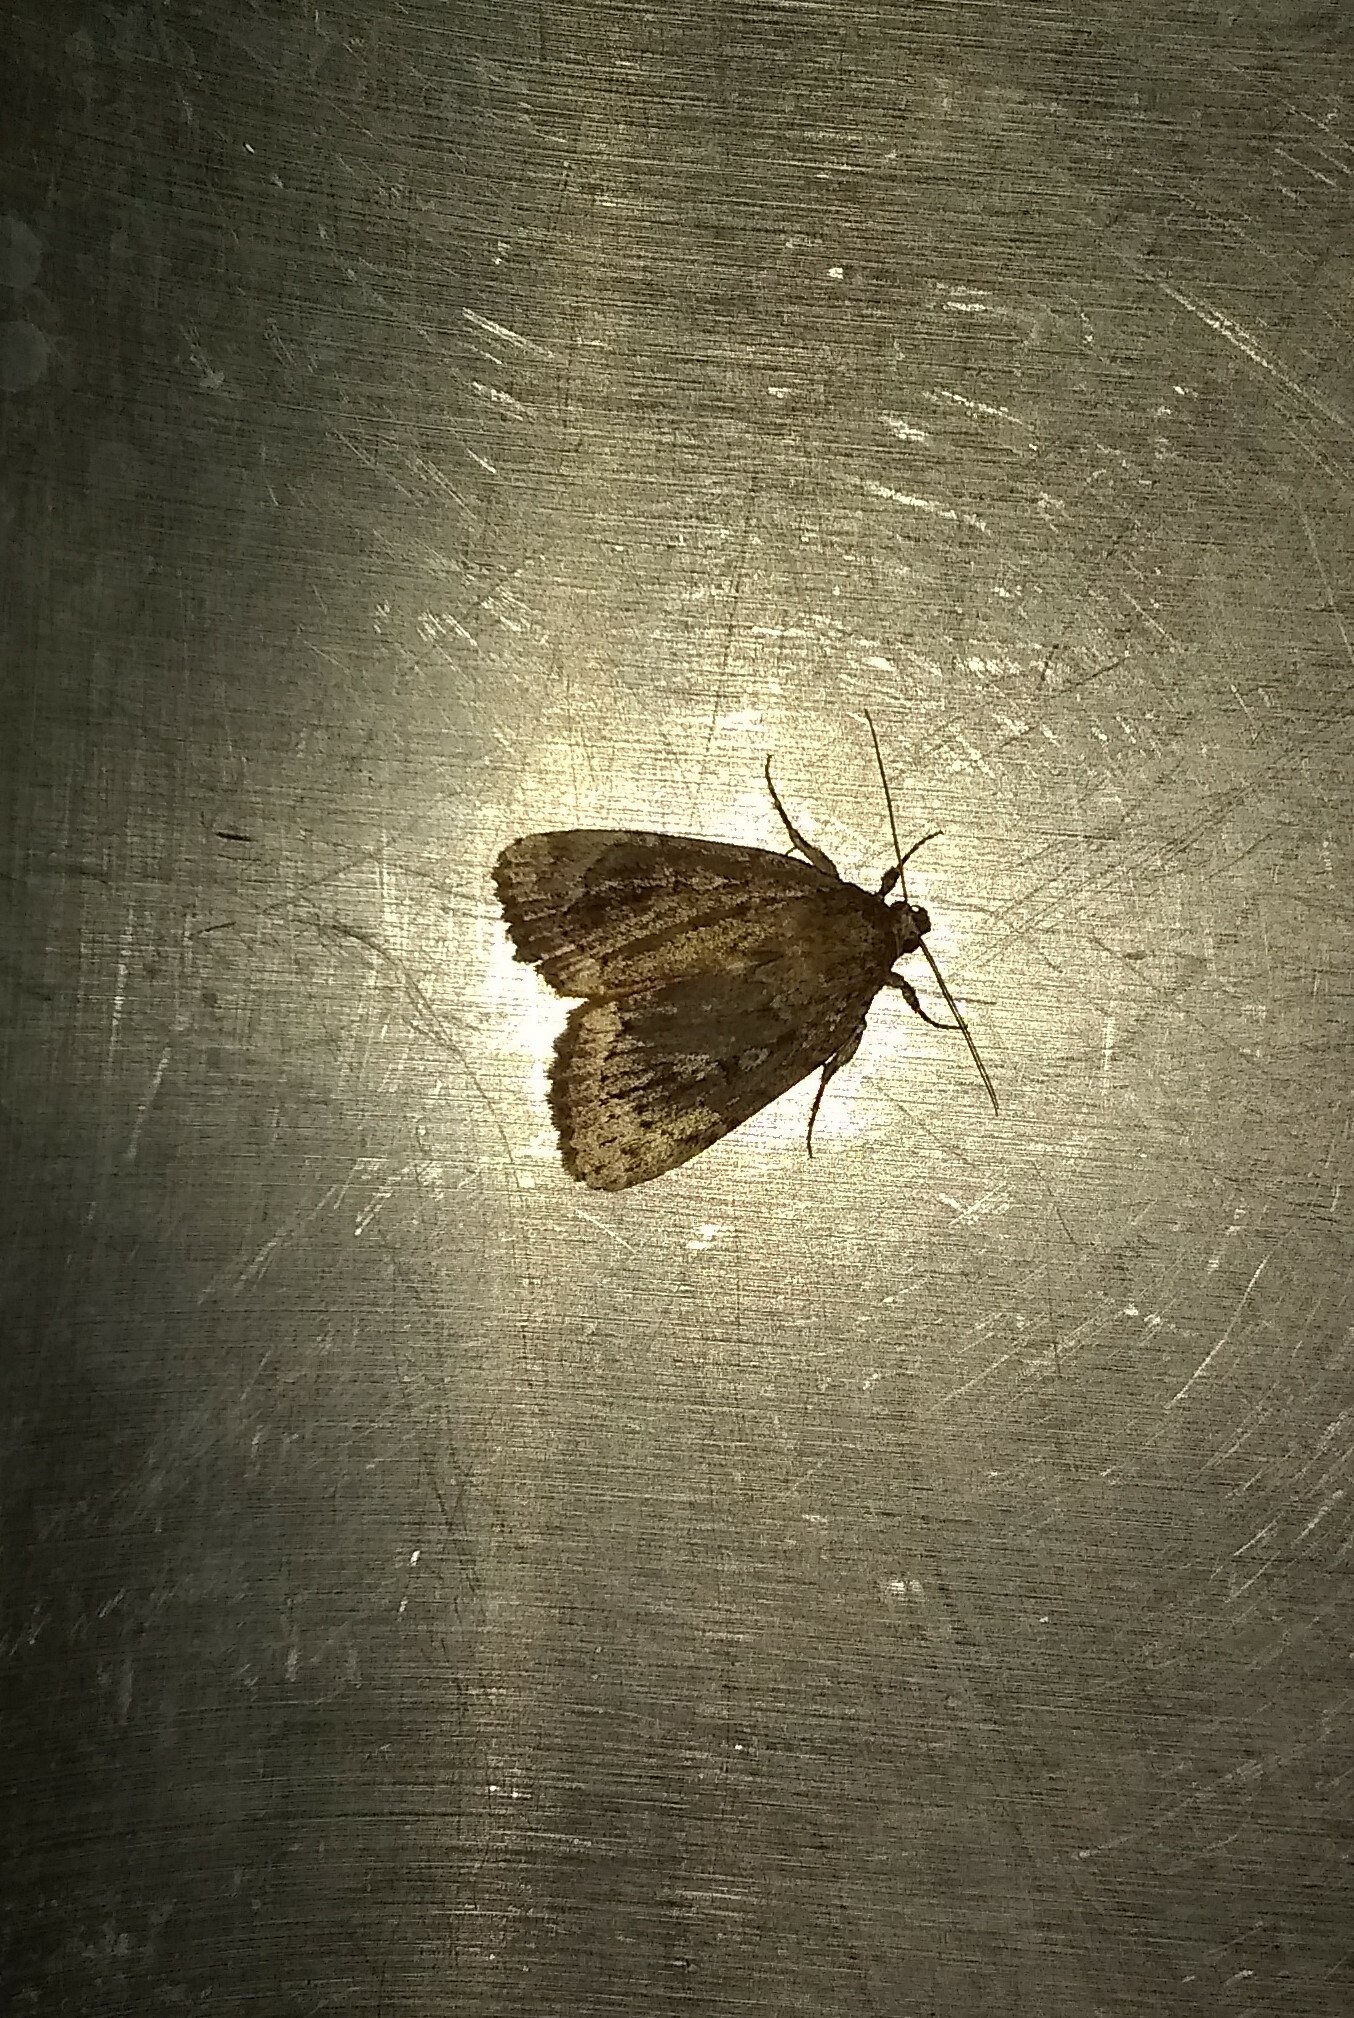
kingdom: Animalia
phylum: Arthropoda
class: Insecta
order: Lepidoptera
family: Noctuidae
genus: Amphipyra
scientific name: Amphipyra pyramidoides
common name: American copper underwing
